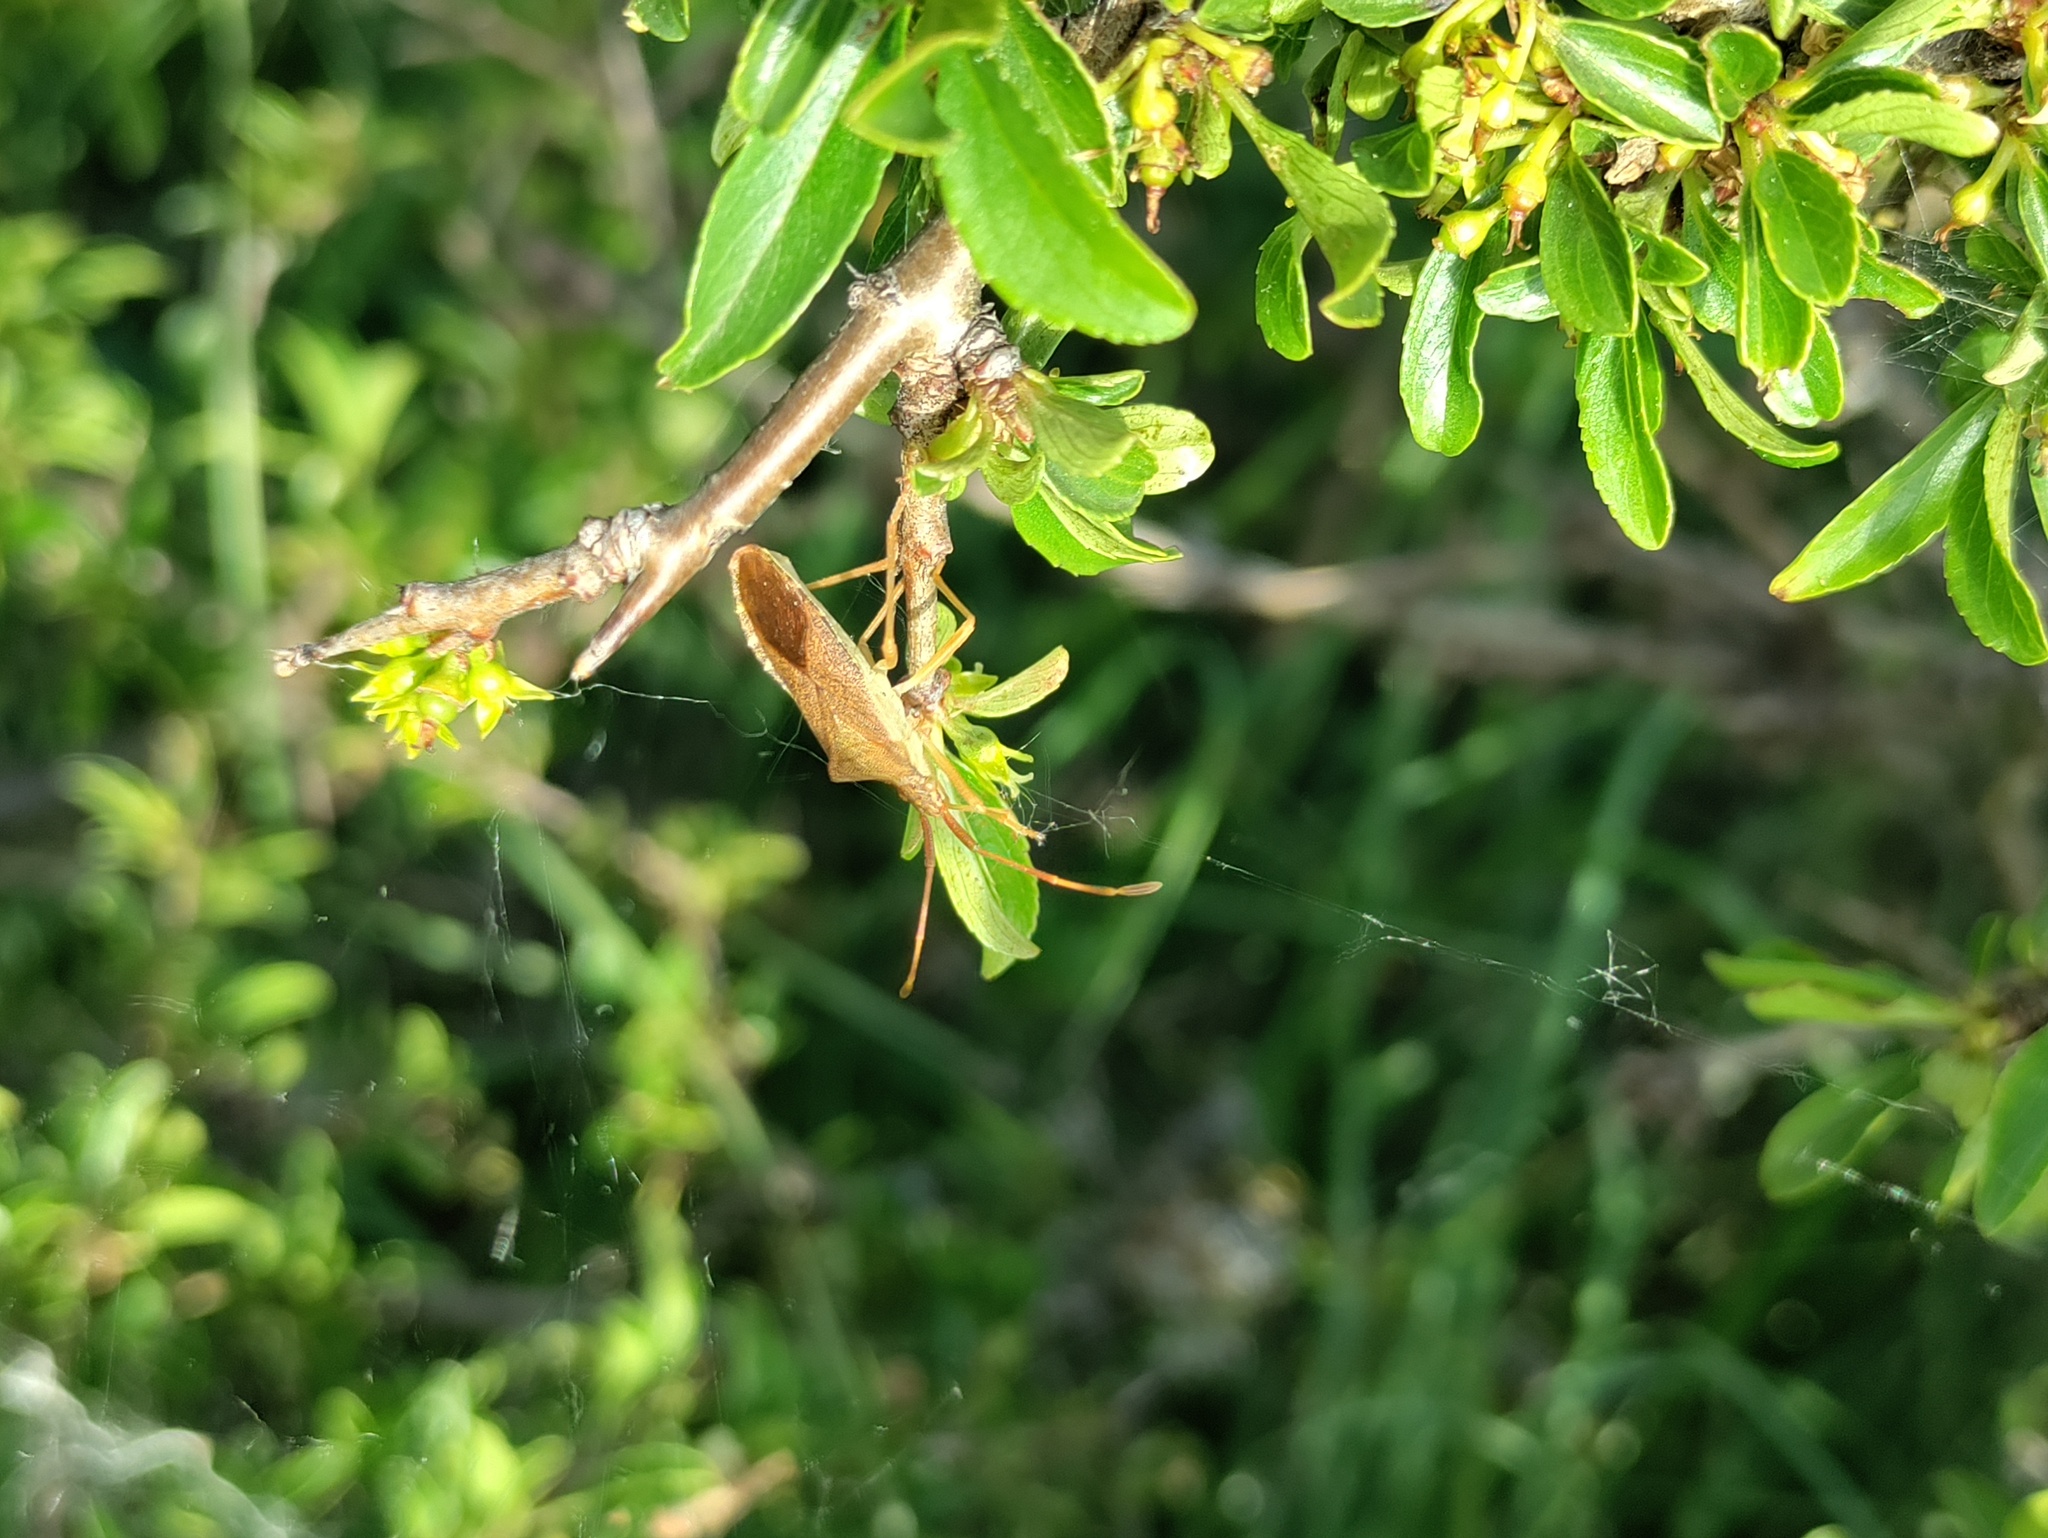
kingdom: Animalia
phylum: Arthropoda
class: Insecta
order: Hemiptera
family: Coreidae
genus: Gonocerus
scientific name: Gonocerus acuteangulatus
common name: Box bug
